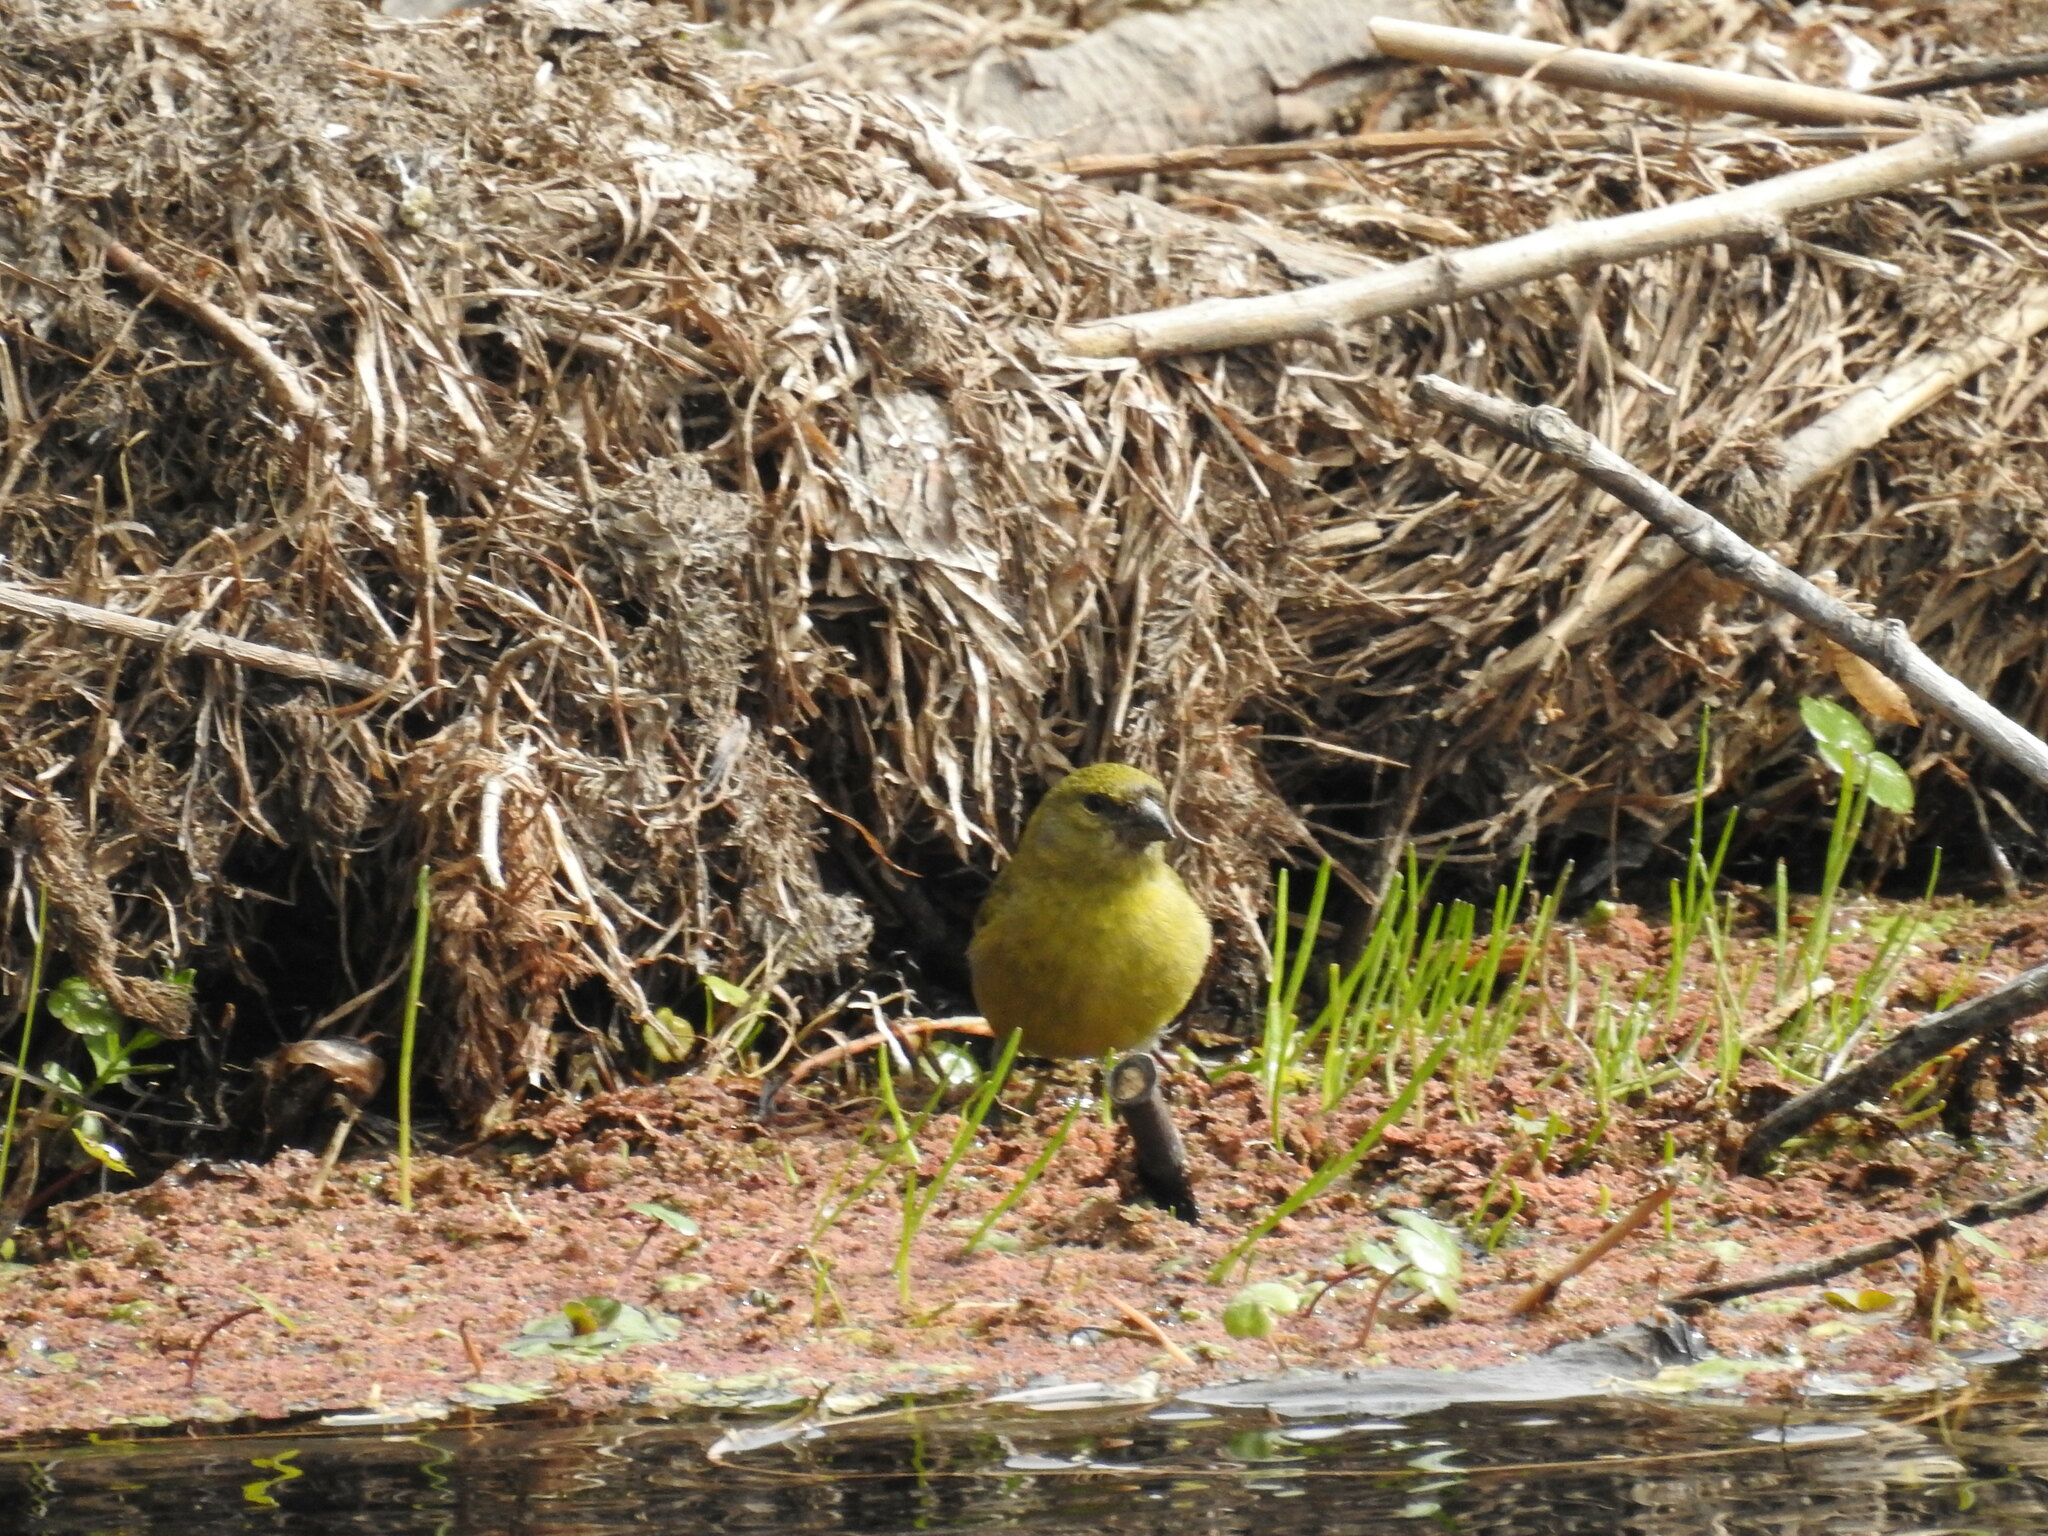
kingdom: Animalia
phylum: Chordata
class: Aves
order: Passeriformes
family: Fringillidae
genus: Spinus
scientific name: Spinus magellanicus
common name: Hooded siskin
